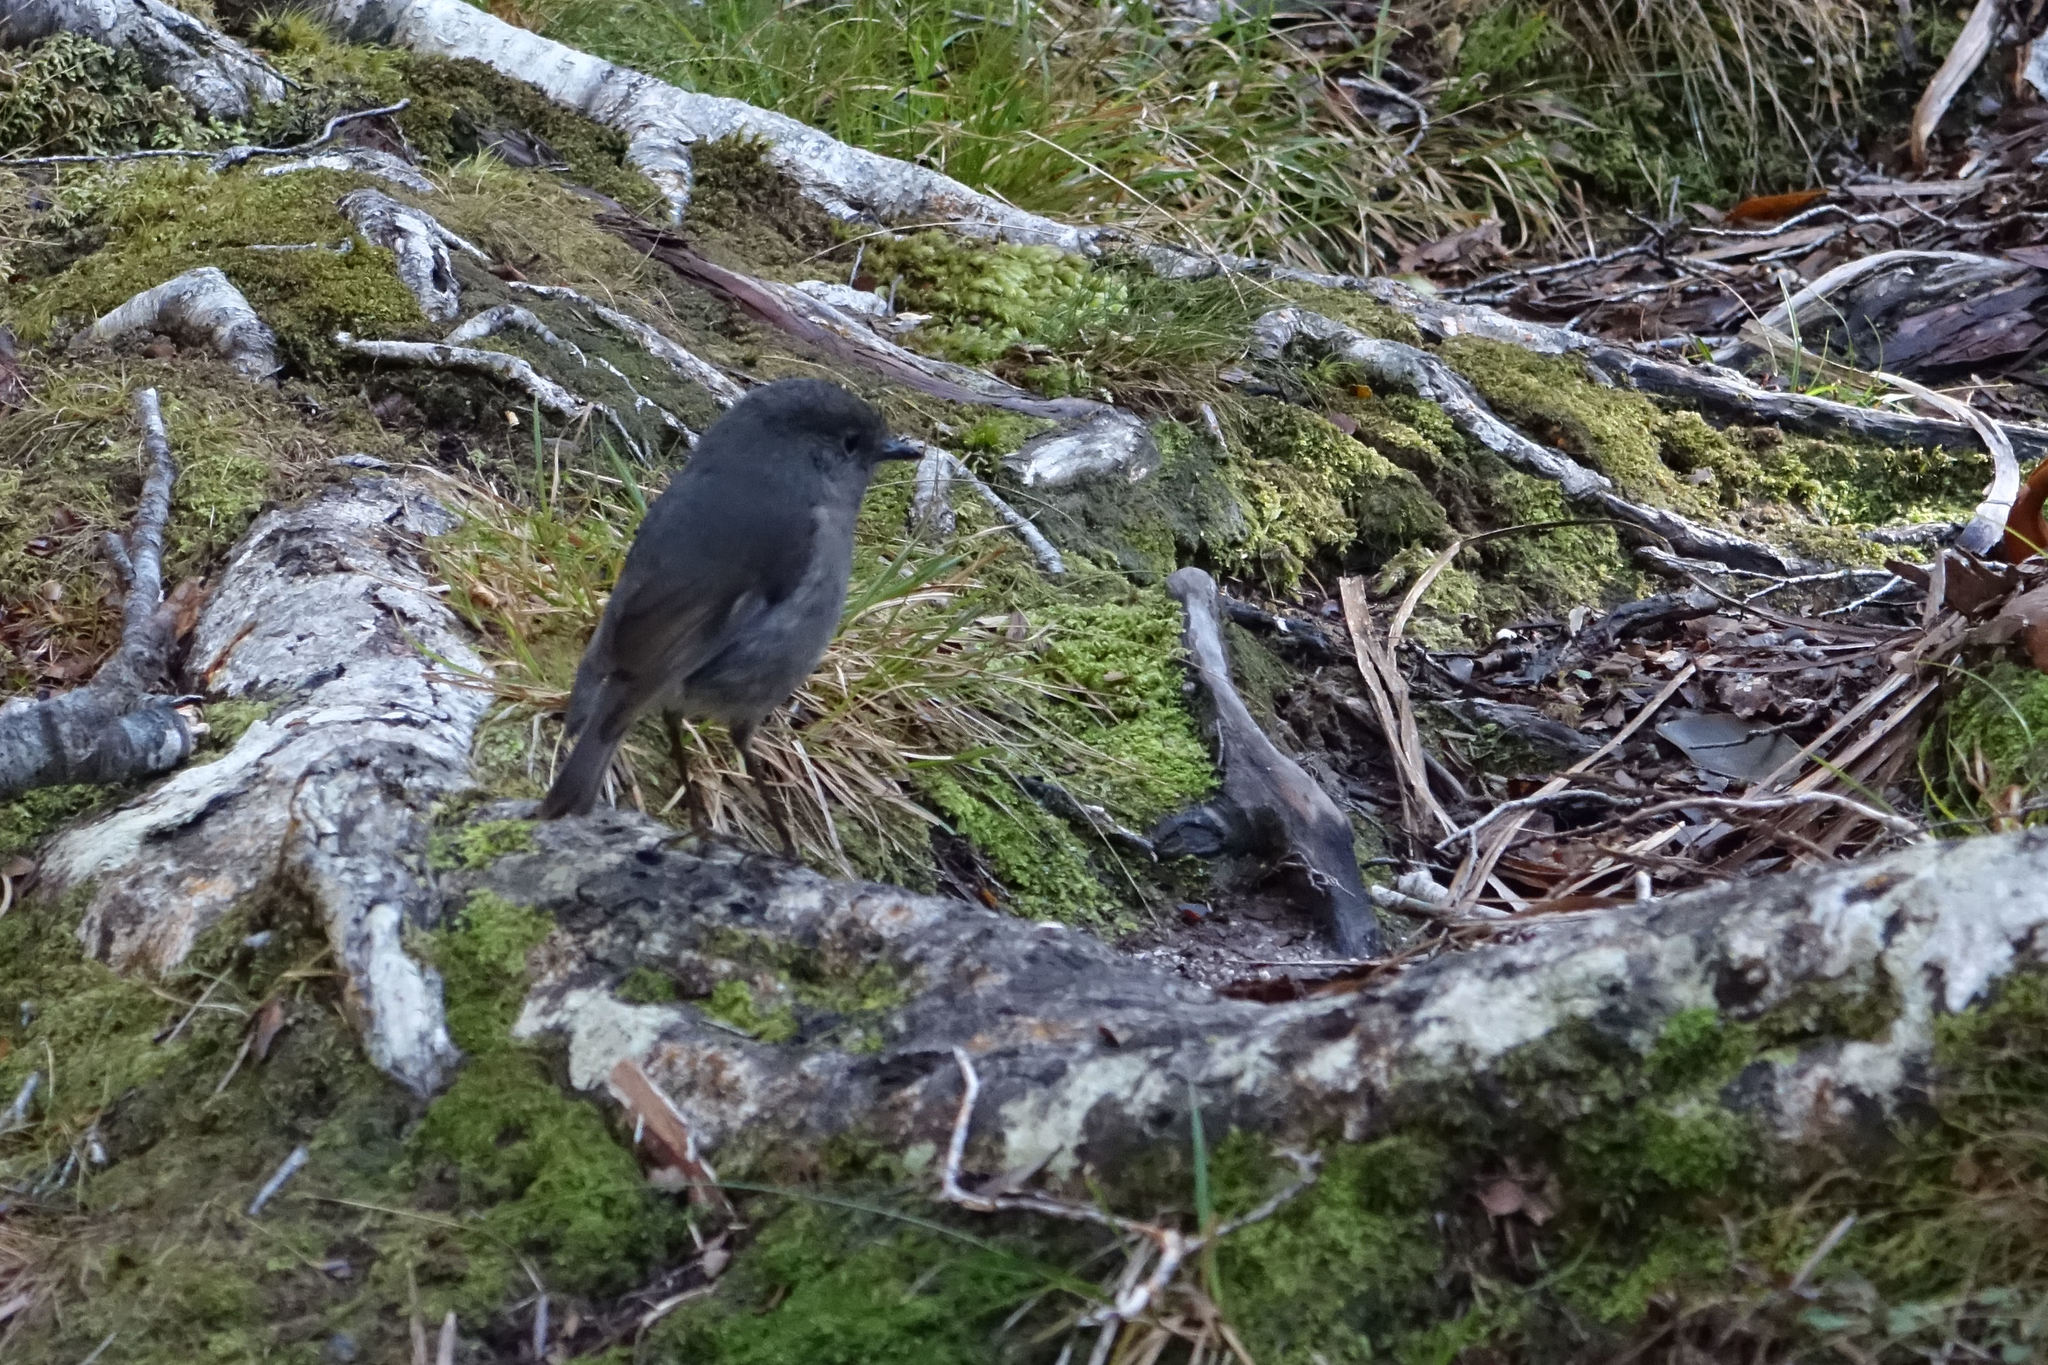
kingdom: Animalia
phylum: Chordata
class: Aves
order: Passeriformes
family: Petroicidae
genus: Petroica
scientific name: Petroica australis
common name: New zealand robin
